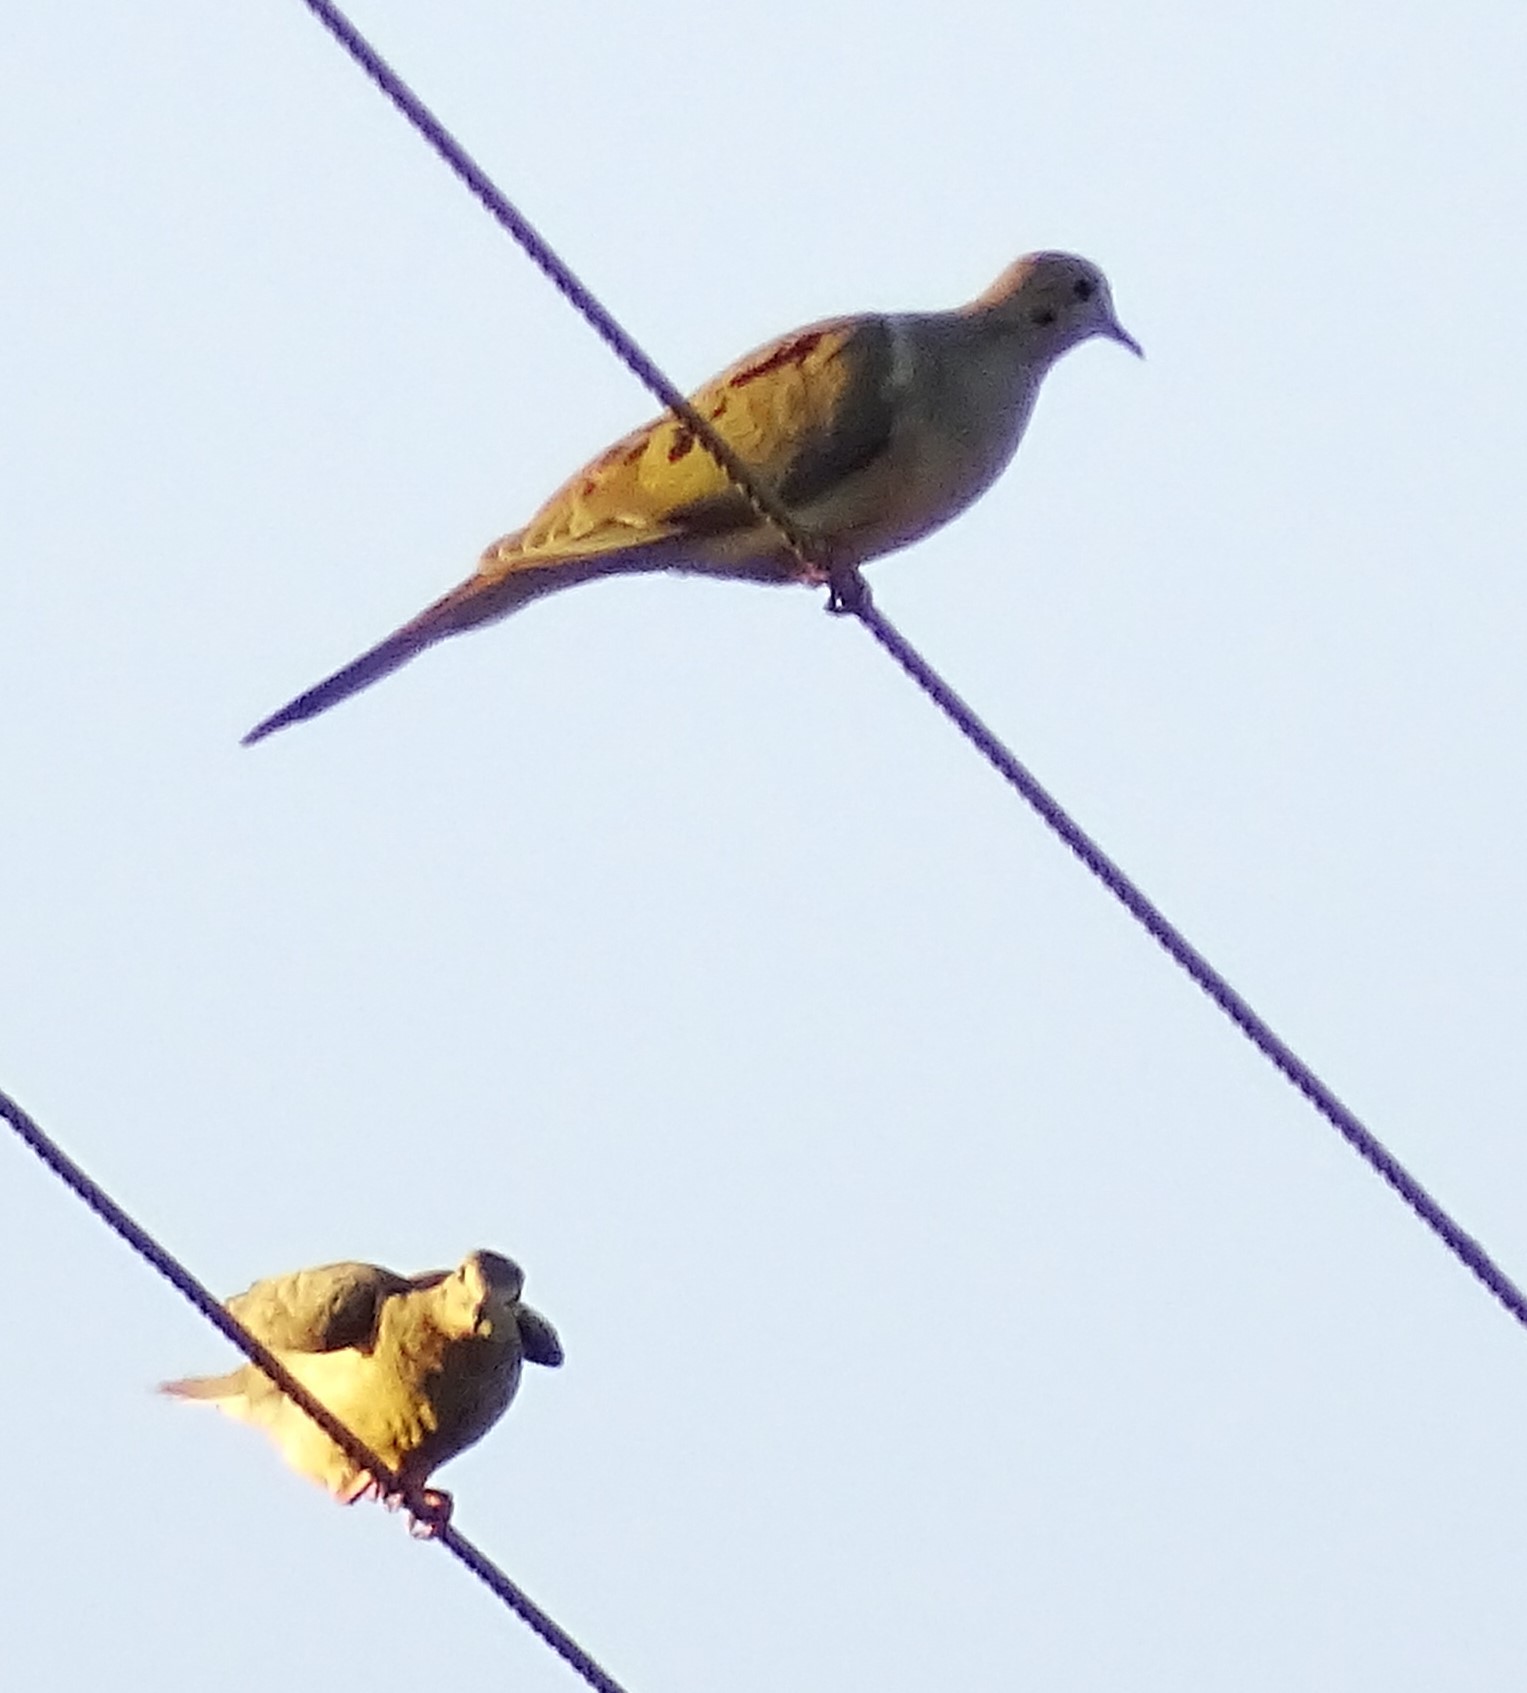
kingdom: Animalia
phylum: Chordata
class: Aves
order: Columbiformes
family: Columbidae
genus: Zenaida
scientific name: Zenaida macroura
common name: Mourning dove
